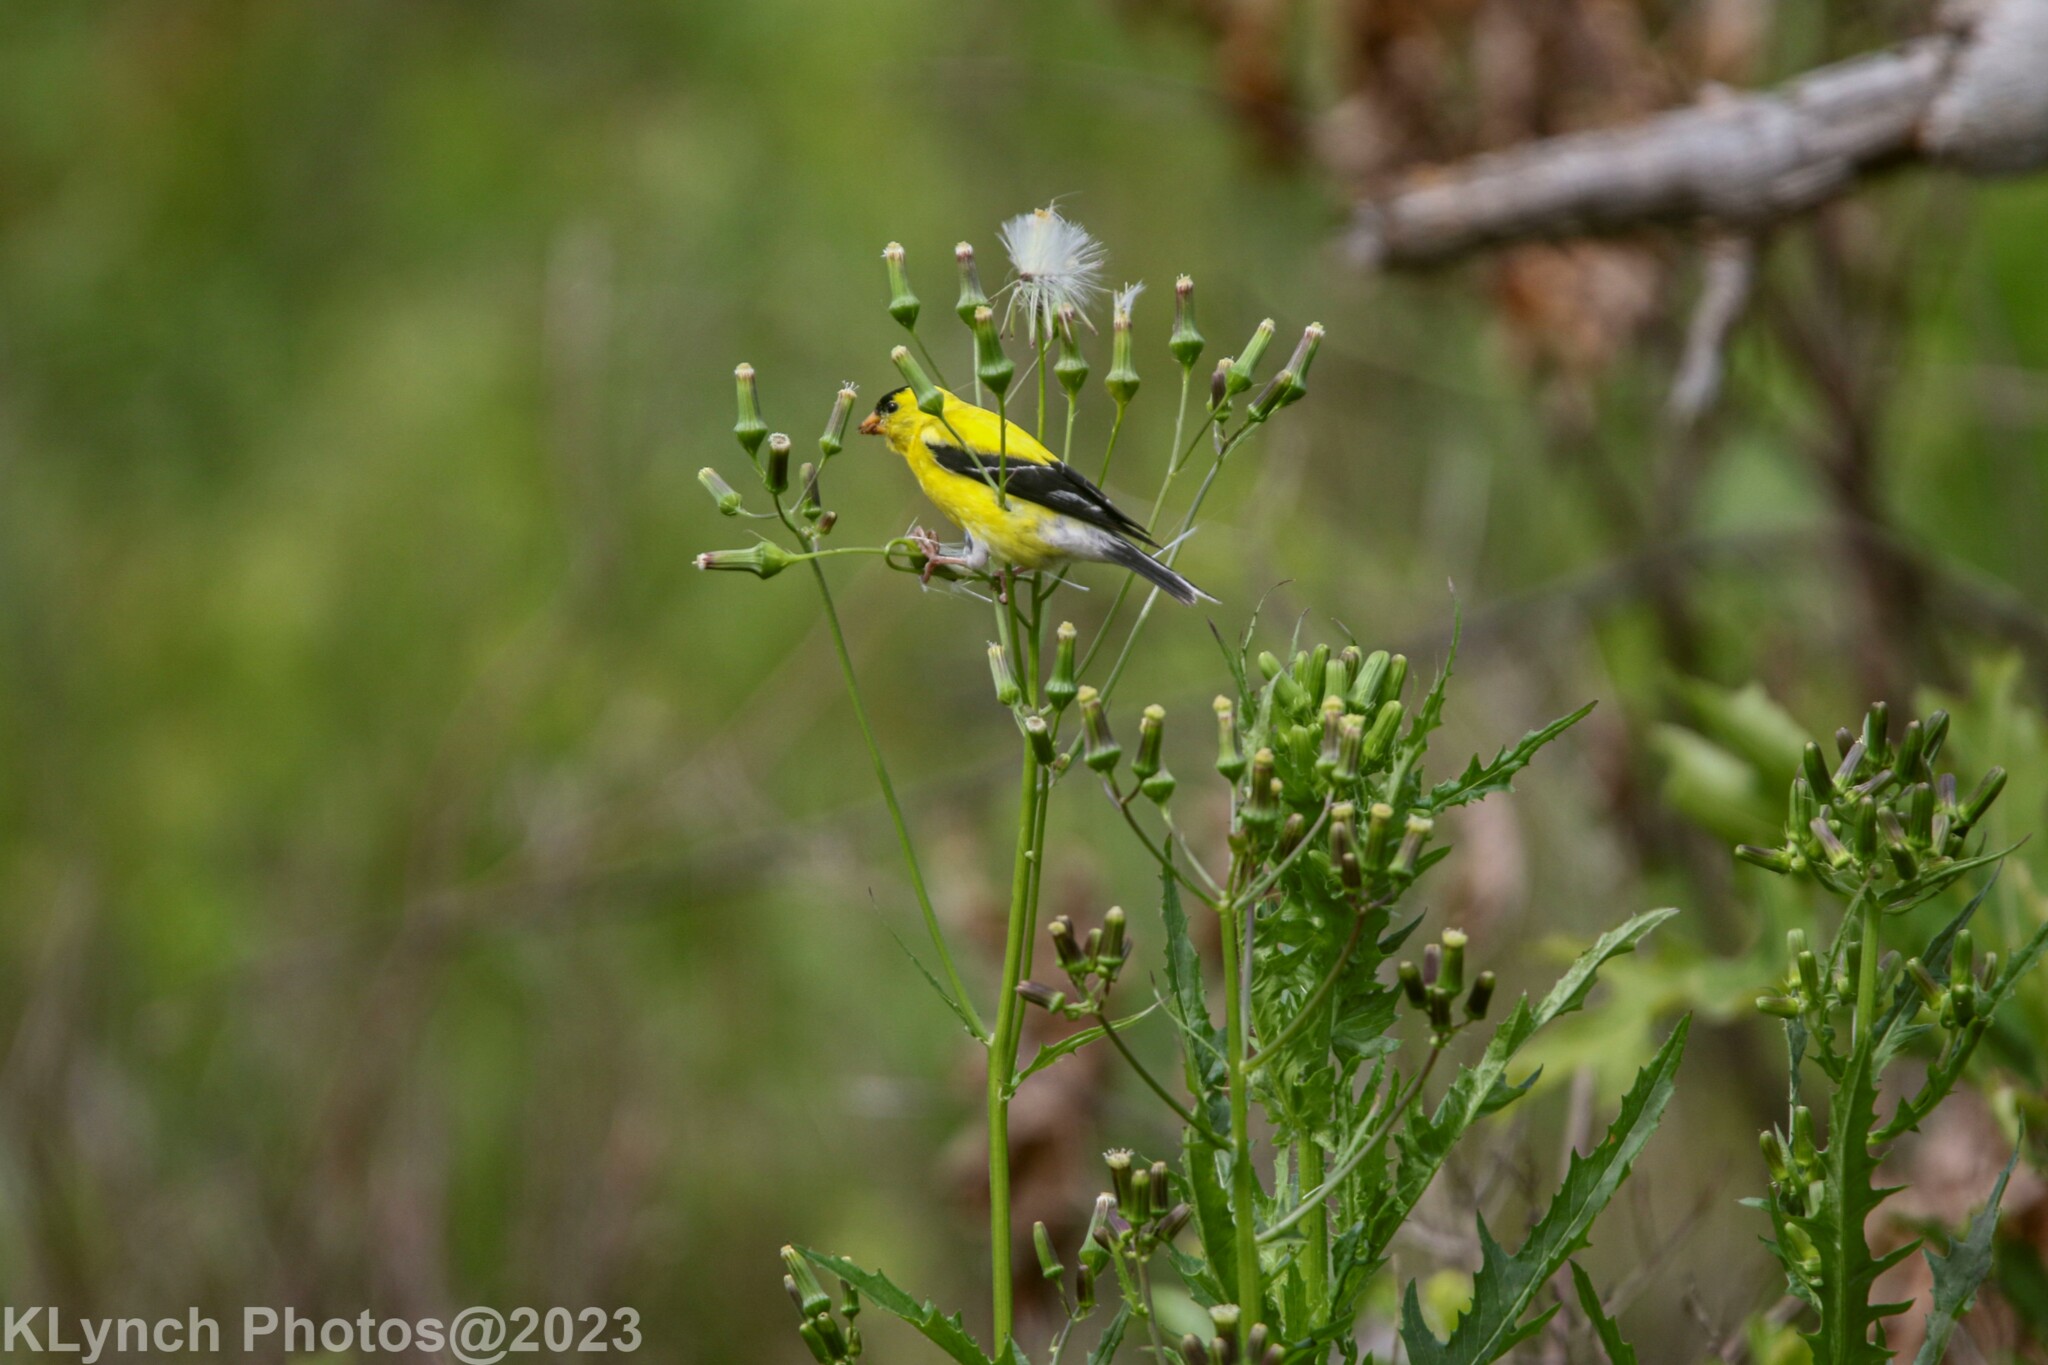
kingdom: Animalia
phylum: Chordata
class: Aves
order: Passeriformes
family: Fringillidae
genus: Spinus
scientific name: Spinus tristis
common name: American goldfinch
